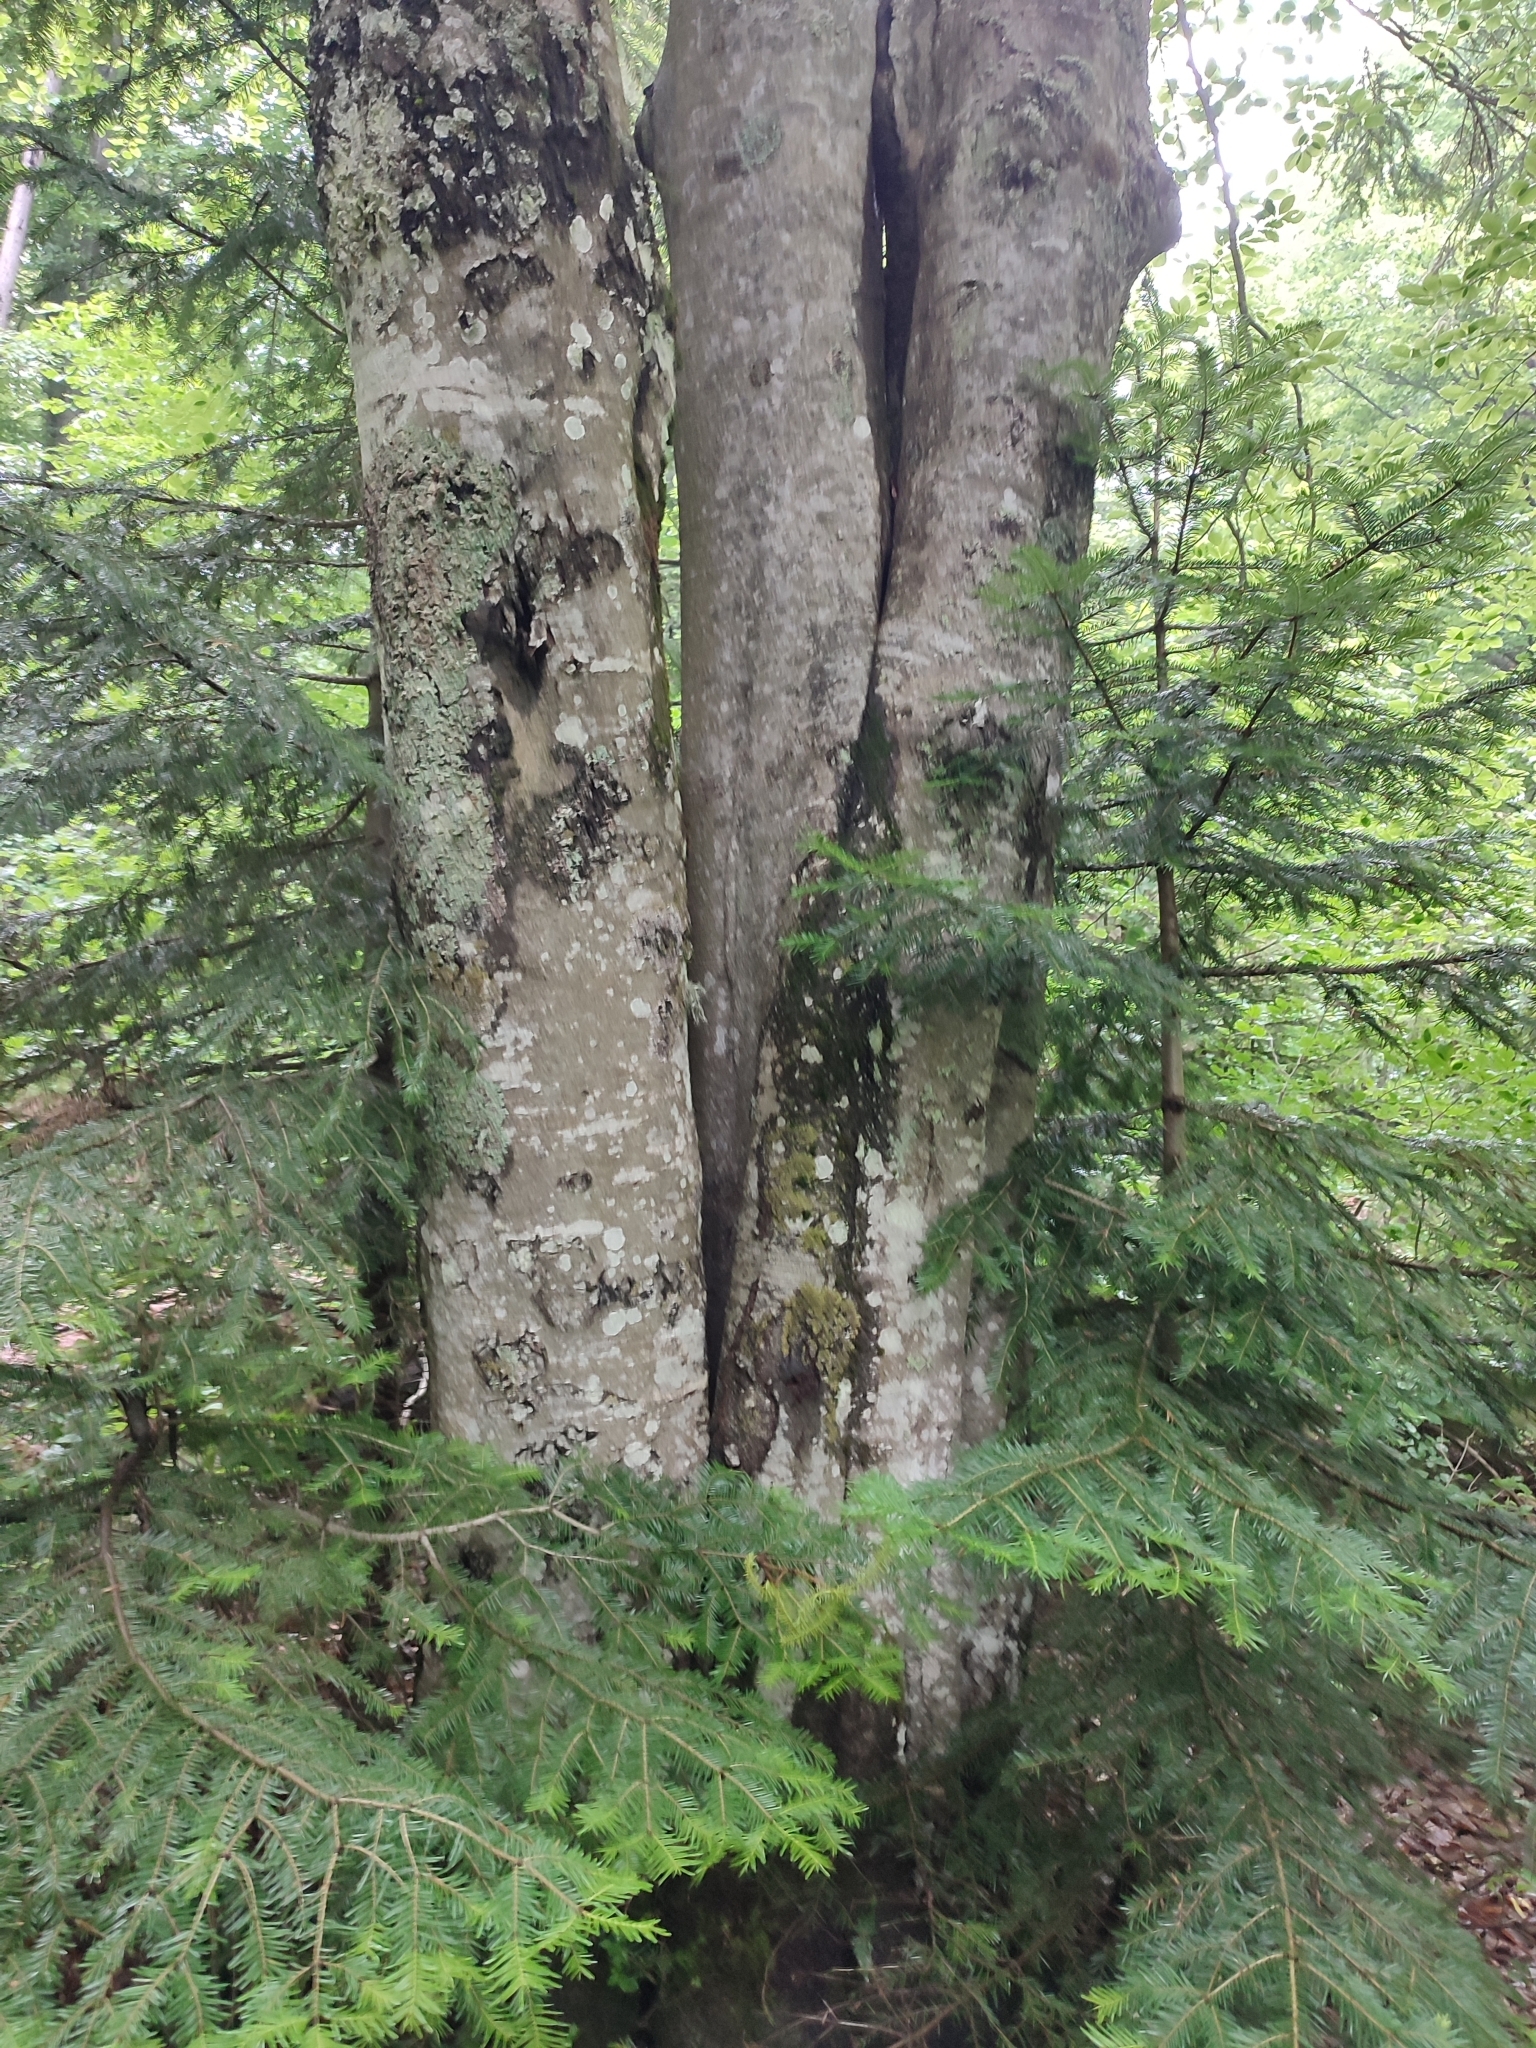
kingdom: Plantae
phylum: Tracheophyta
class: Magnoliopsida
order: Fagales
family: Fagaceae
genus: Fagus
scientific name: Fagus sylvatica
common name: Beech
